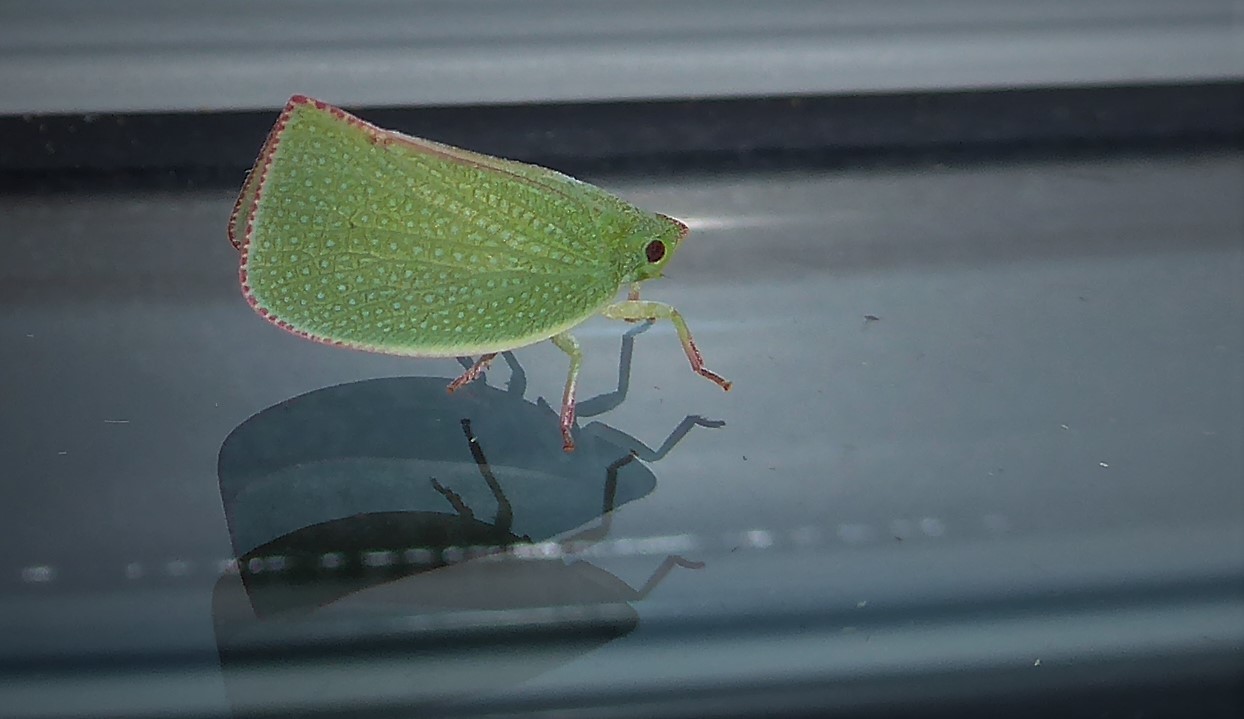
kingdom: Animalia
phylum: Arthropoda
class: Insecta
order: Hemiptera
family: Flatidae
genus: Siphanta
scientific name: Siphanta acuta
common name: Torpedo bug
